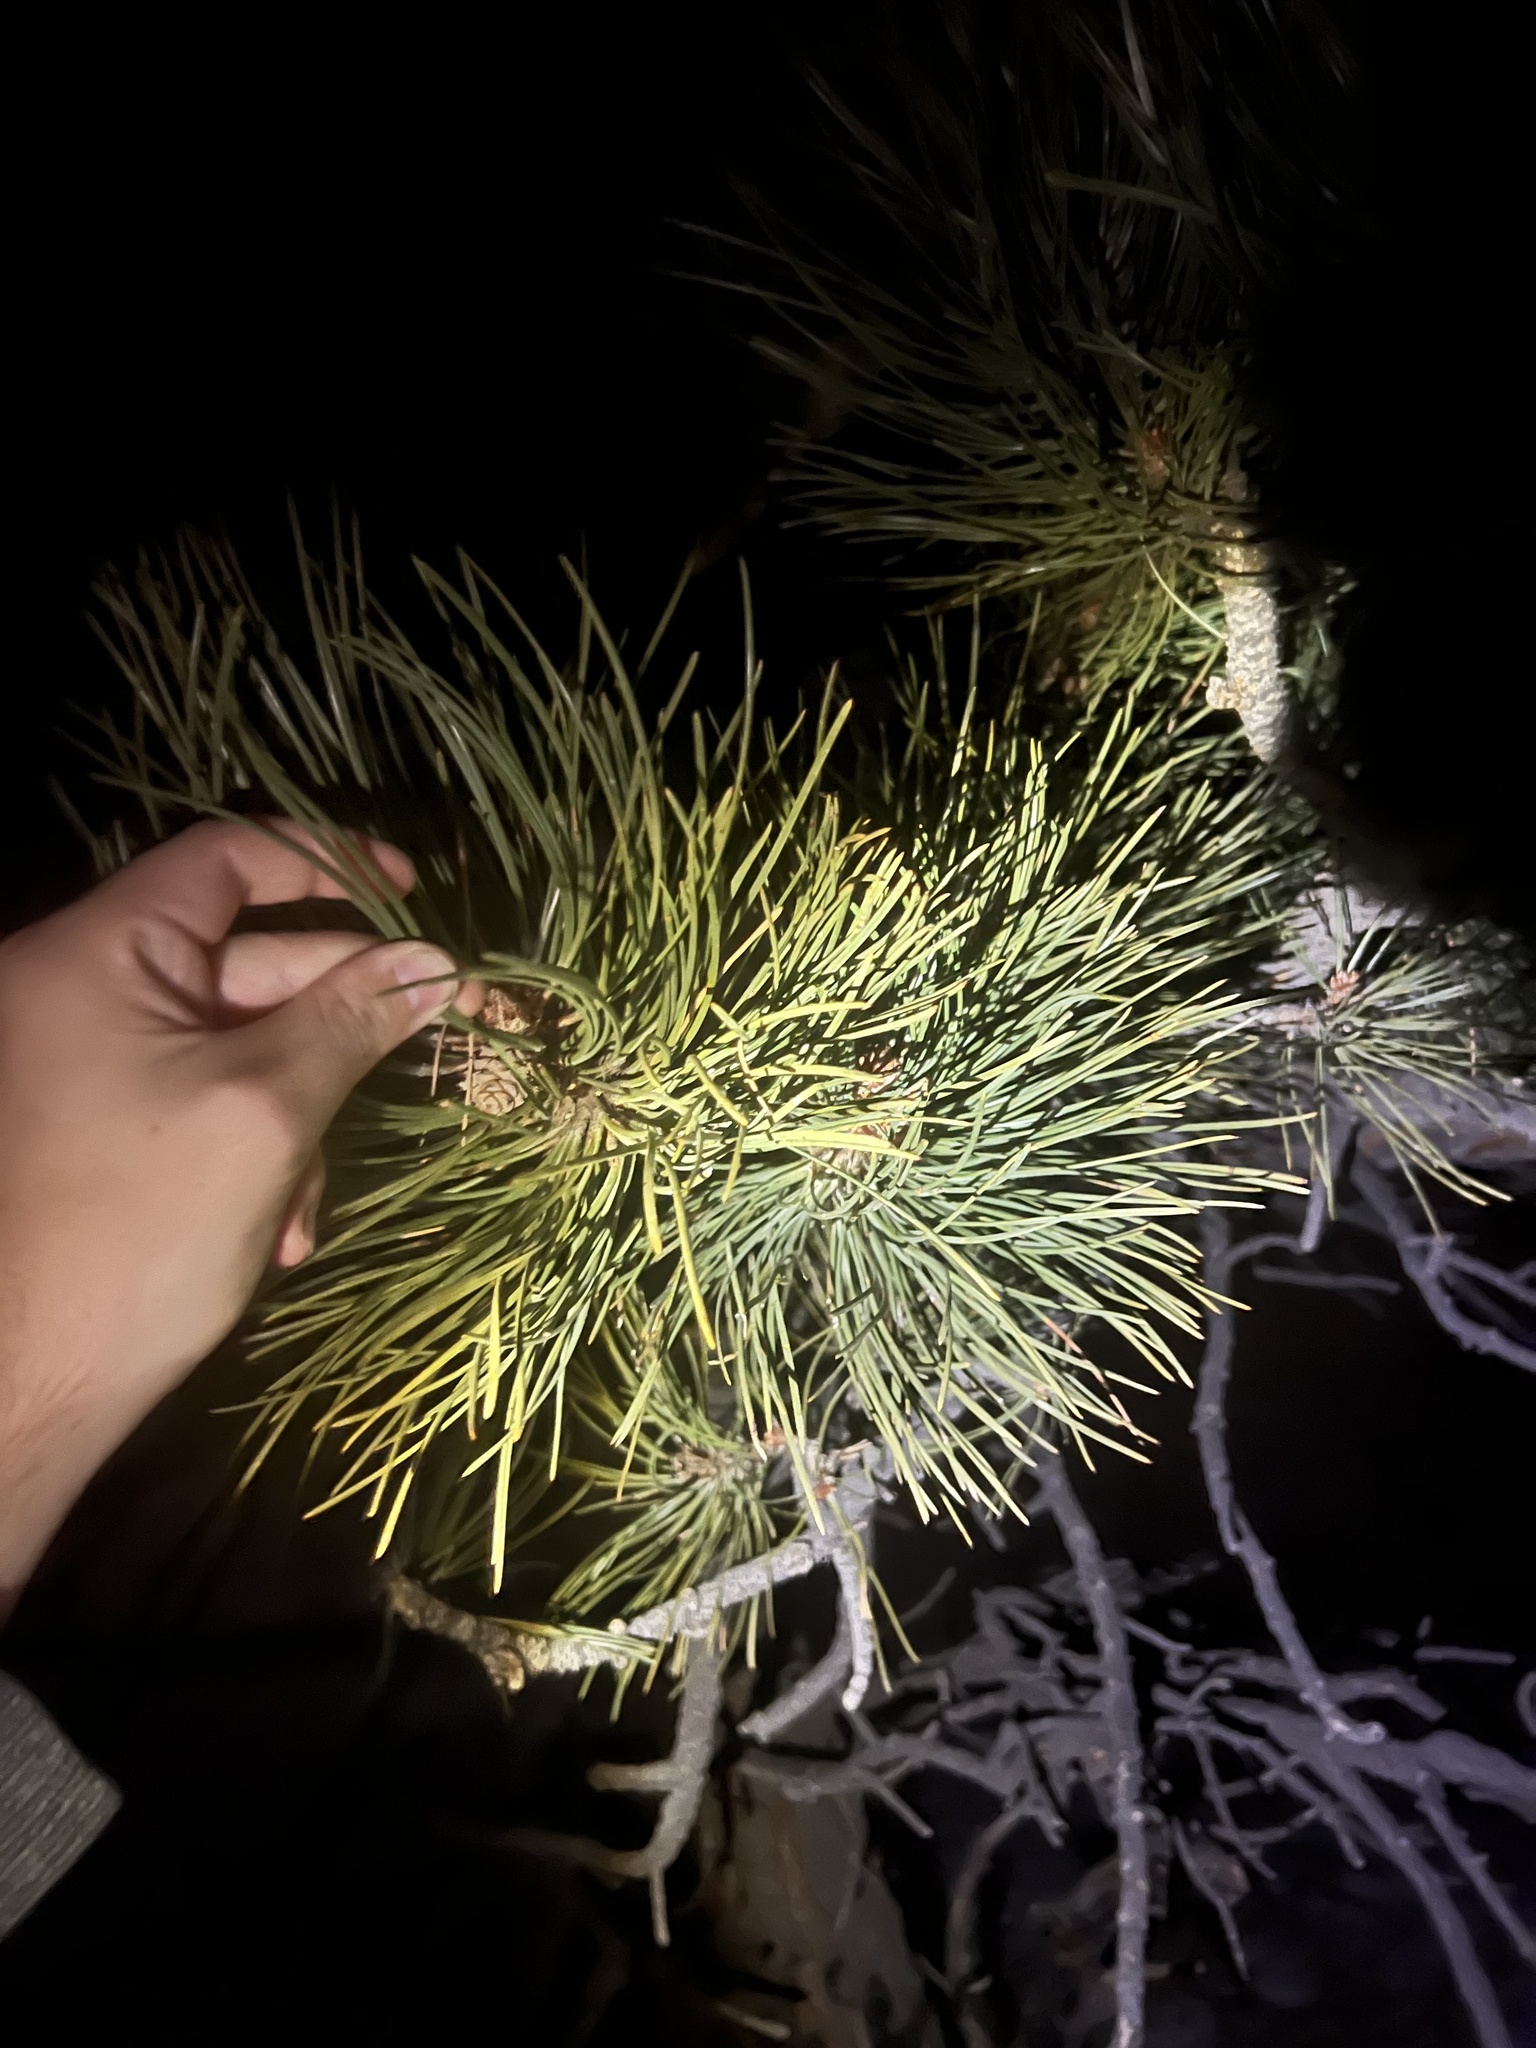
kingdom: Plantae
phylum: Tracheophyta
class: Pinopsida
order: Pinales
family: Pinaceae
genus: Pinus
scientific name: Pinus ponderosa
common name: Western yellow-pine
